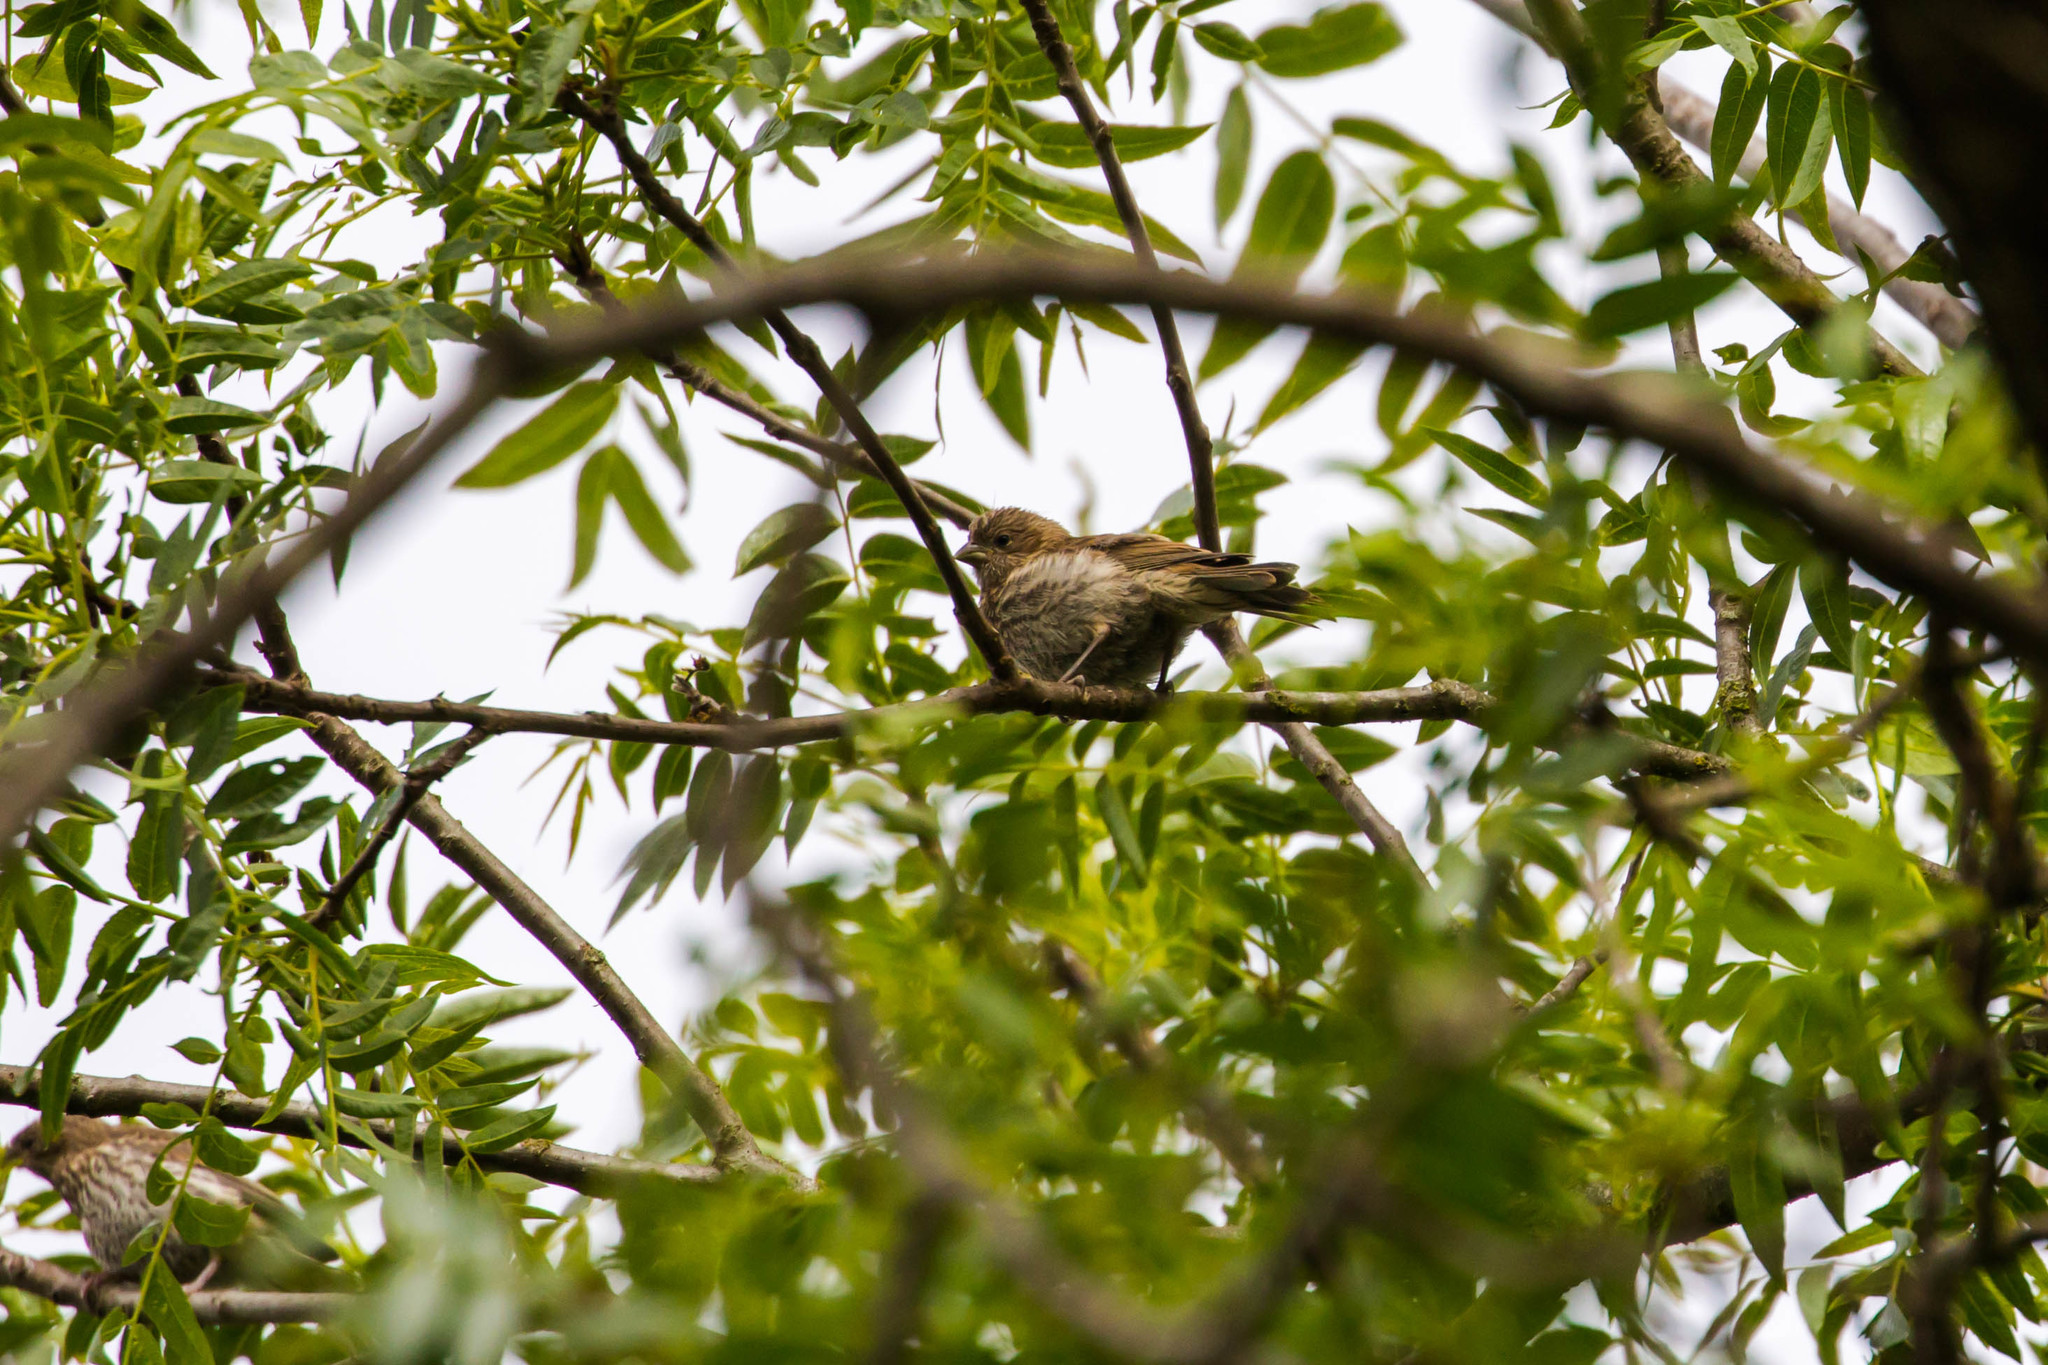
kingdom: Animalia
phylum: Chordata
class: Aves
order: Passeriformes
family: Fringillidae
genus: Haemorhous
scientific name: Haemorhous mexicanus
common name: House finch
